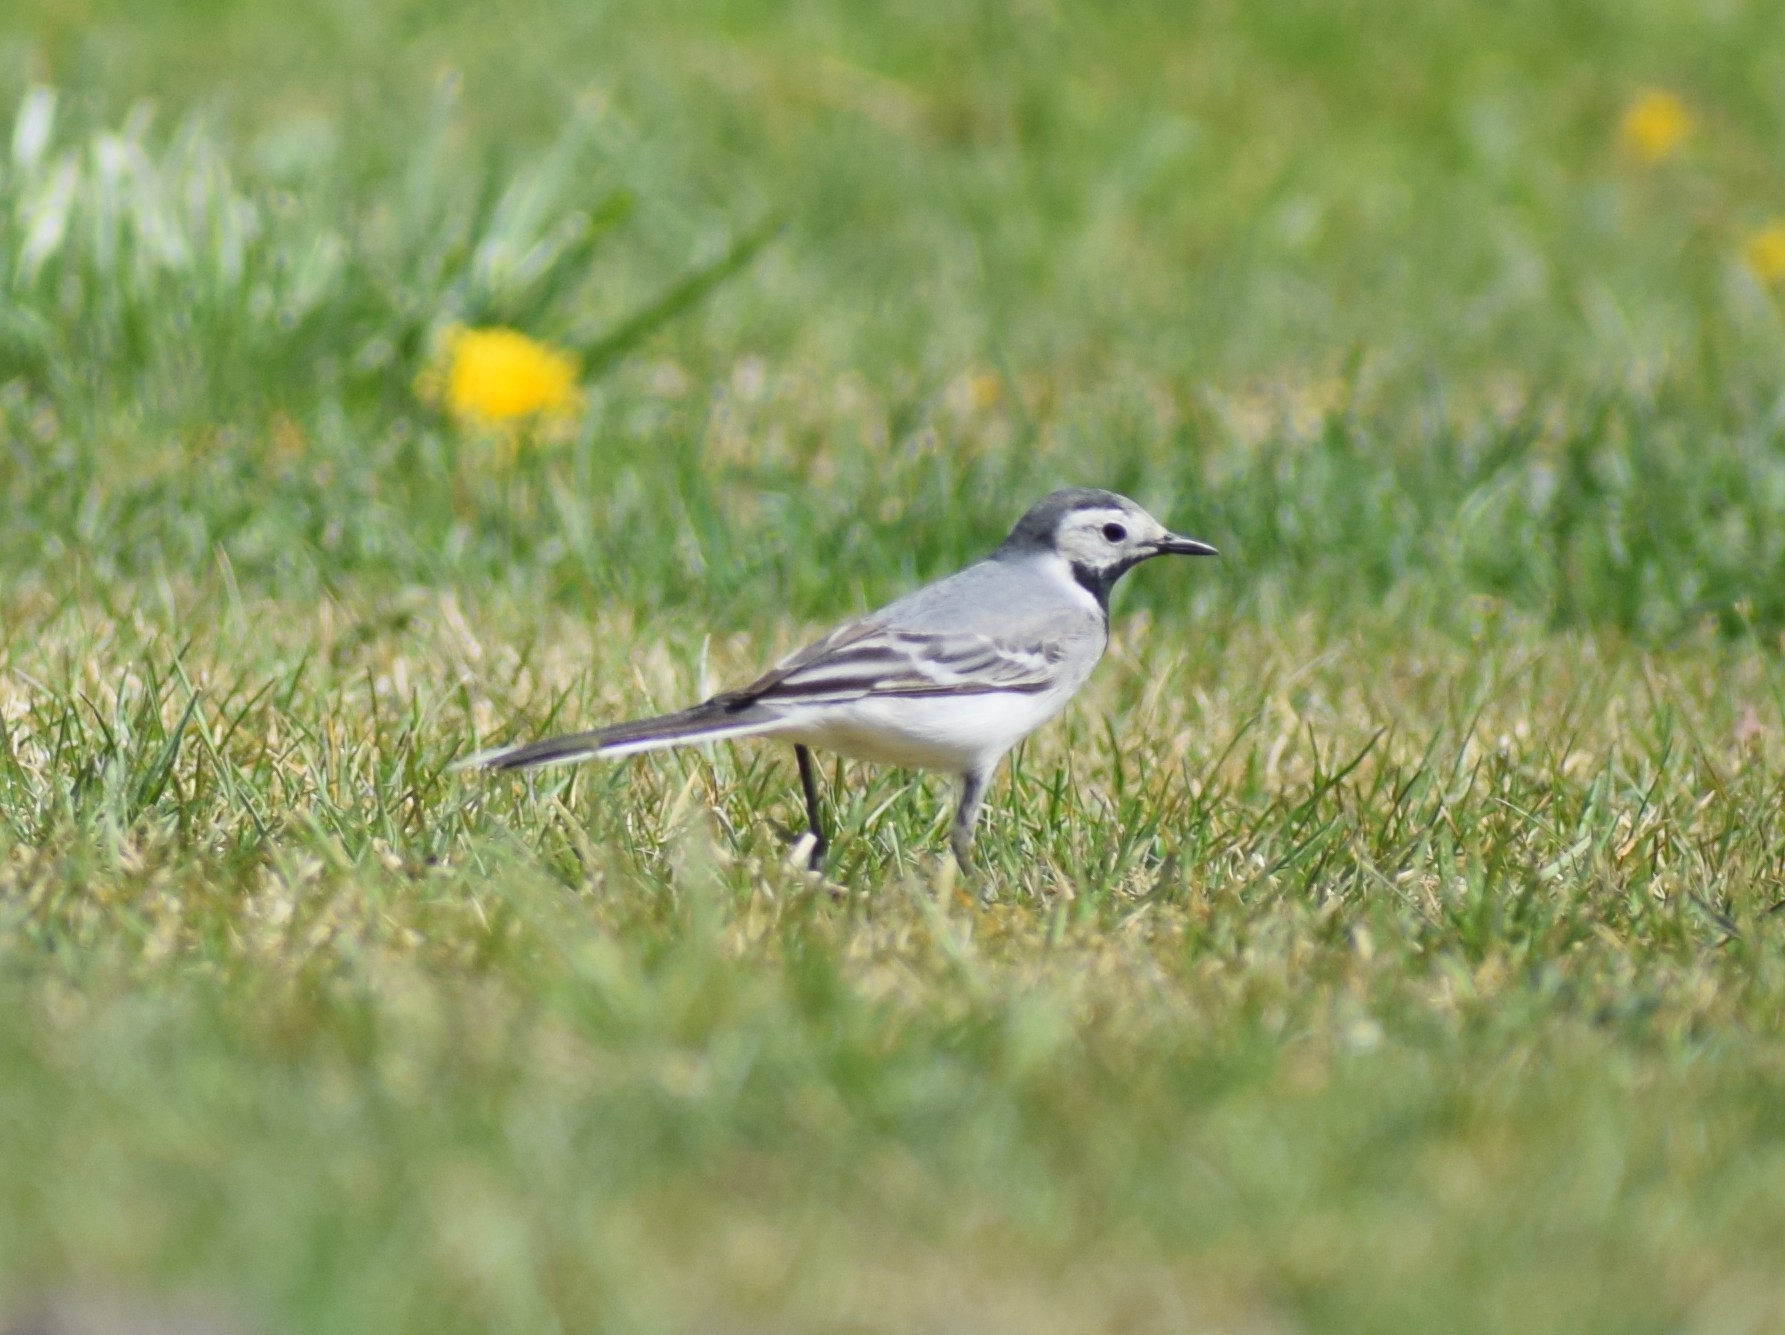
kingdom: Animalia
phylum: Chordata
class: Aves
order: Passeriformes
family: Motacillidae
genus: Motacilla
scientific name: Motacilla alba
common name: White wagtail
